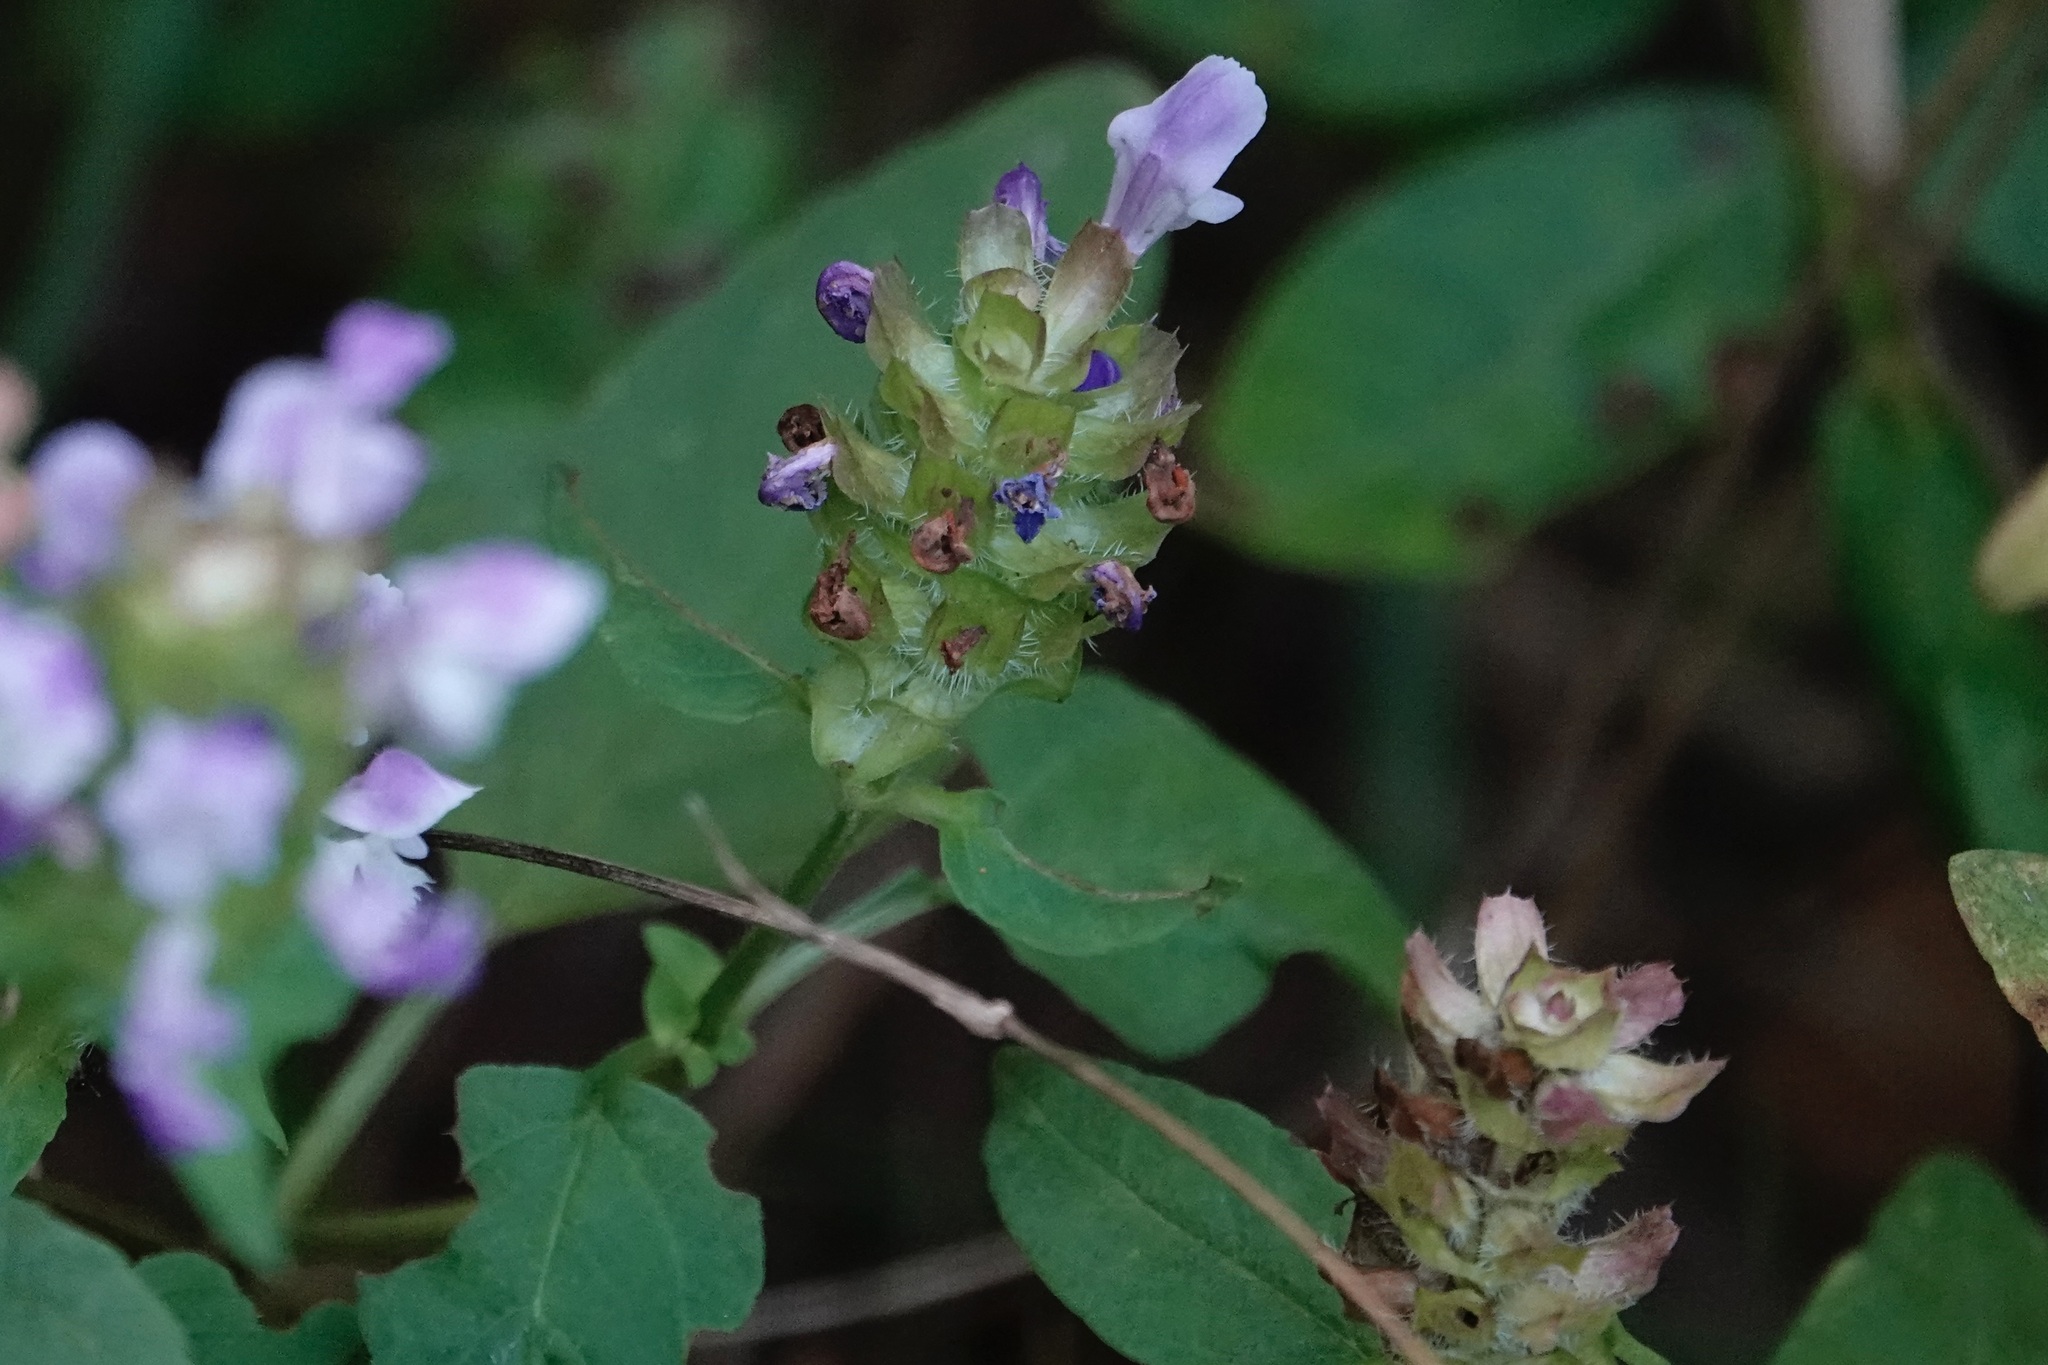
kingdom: Plantae
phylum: Tracheophyta
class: Magnoliopsida
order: Lamiales
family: Lamiaceae
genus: Prunella
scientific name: Prunella vulgaris
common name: Heal-all
